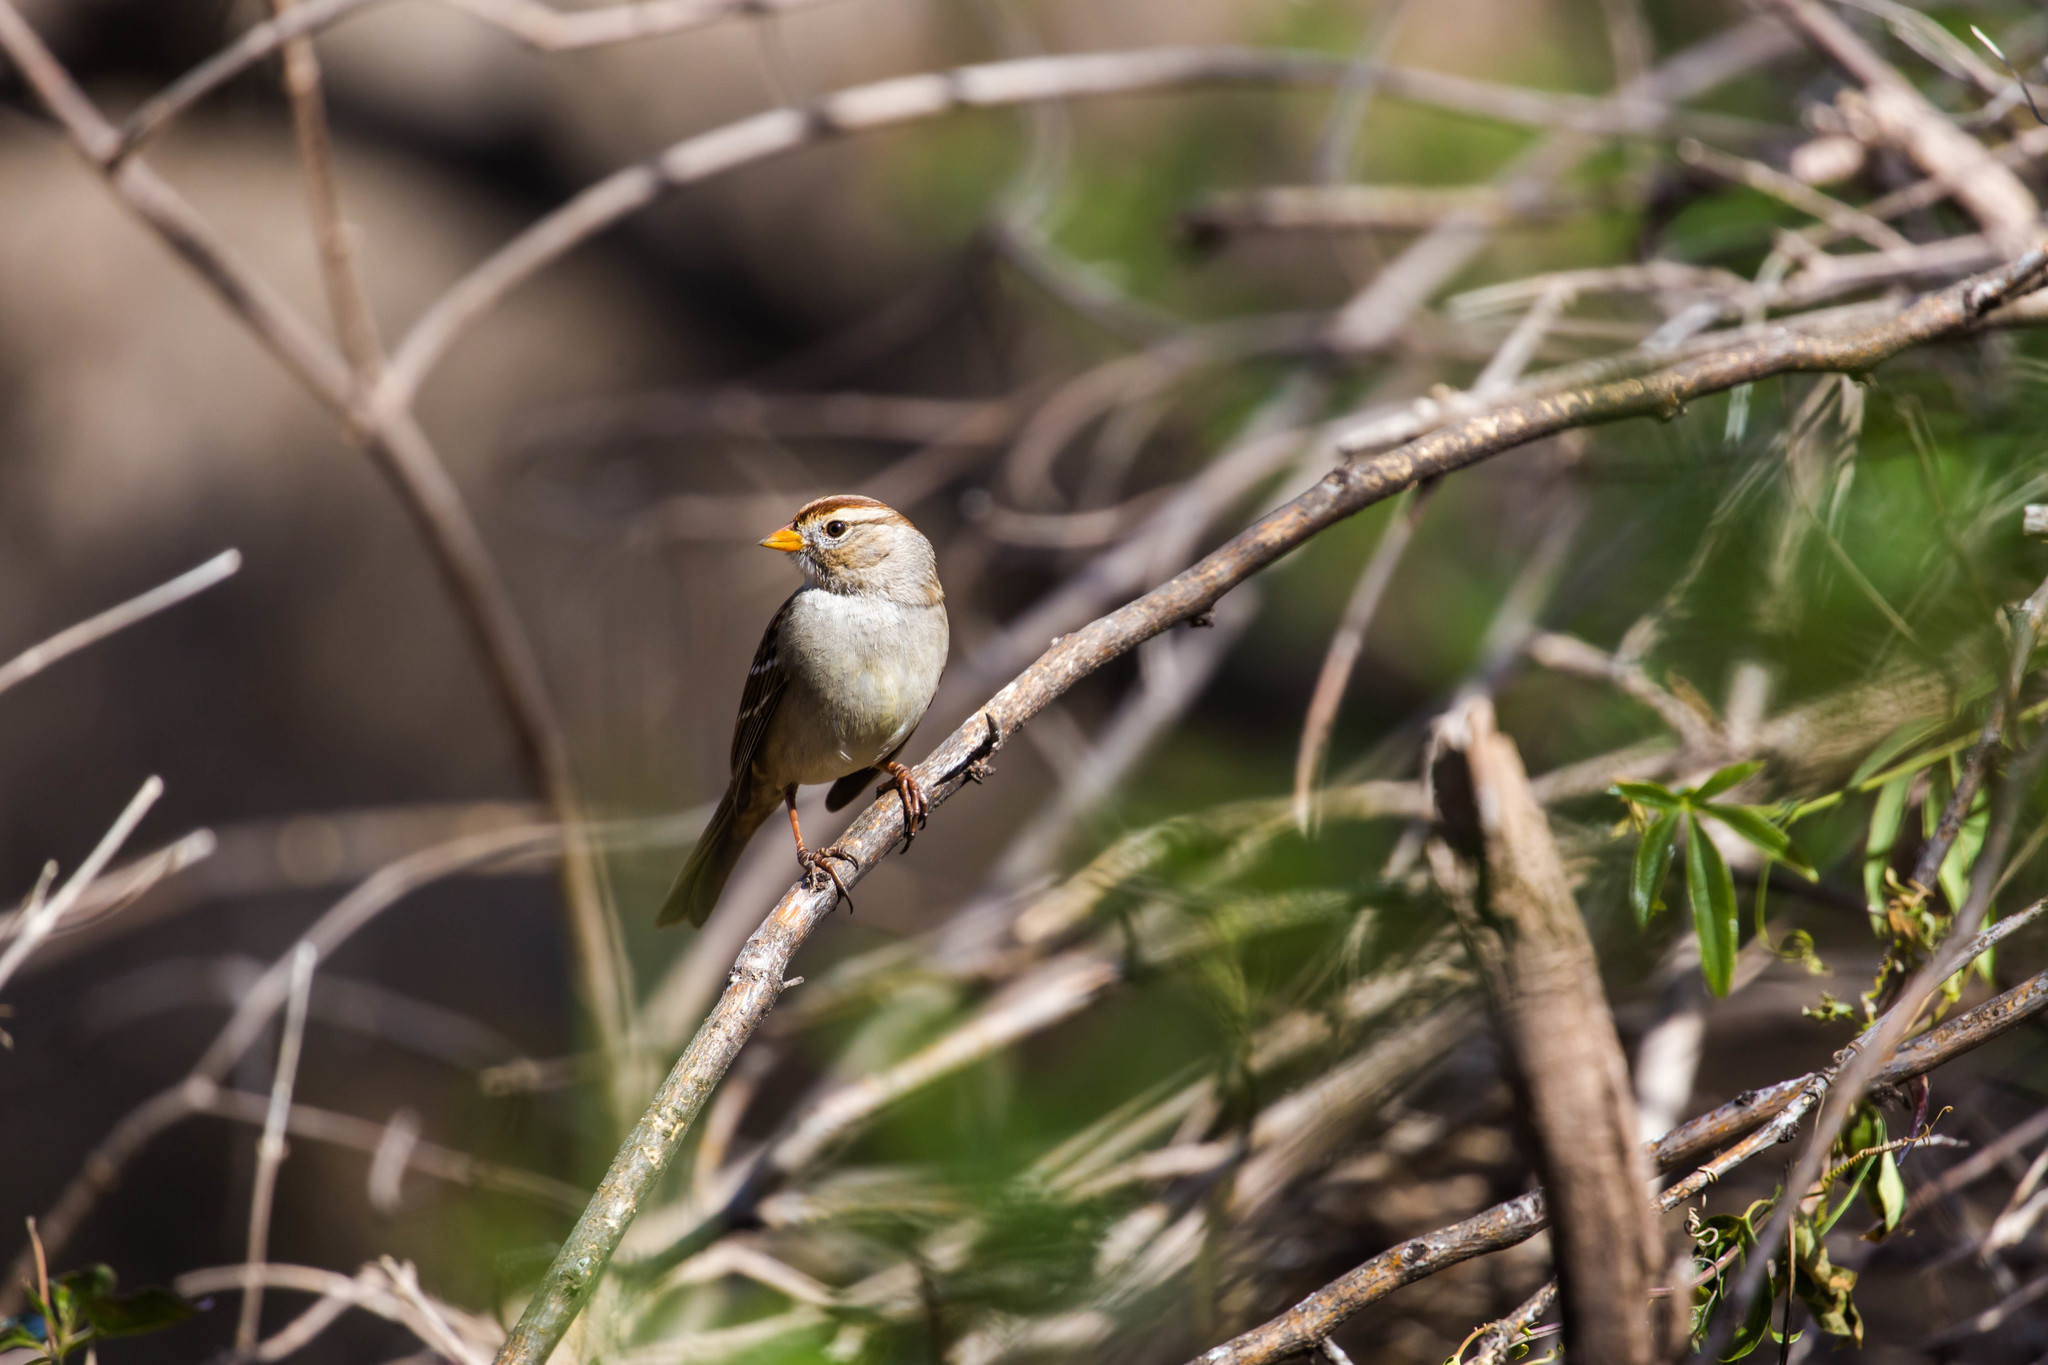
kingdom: Animalia
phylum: Chordata
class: Aves
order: Passeriformes
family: Passerellidae
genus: Zonotrichia
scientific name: Zonotrichia leucophrys
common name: White-crowned sparrow
